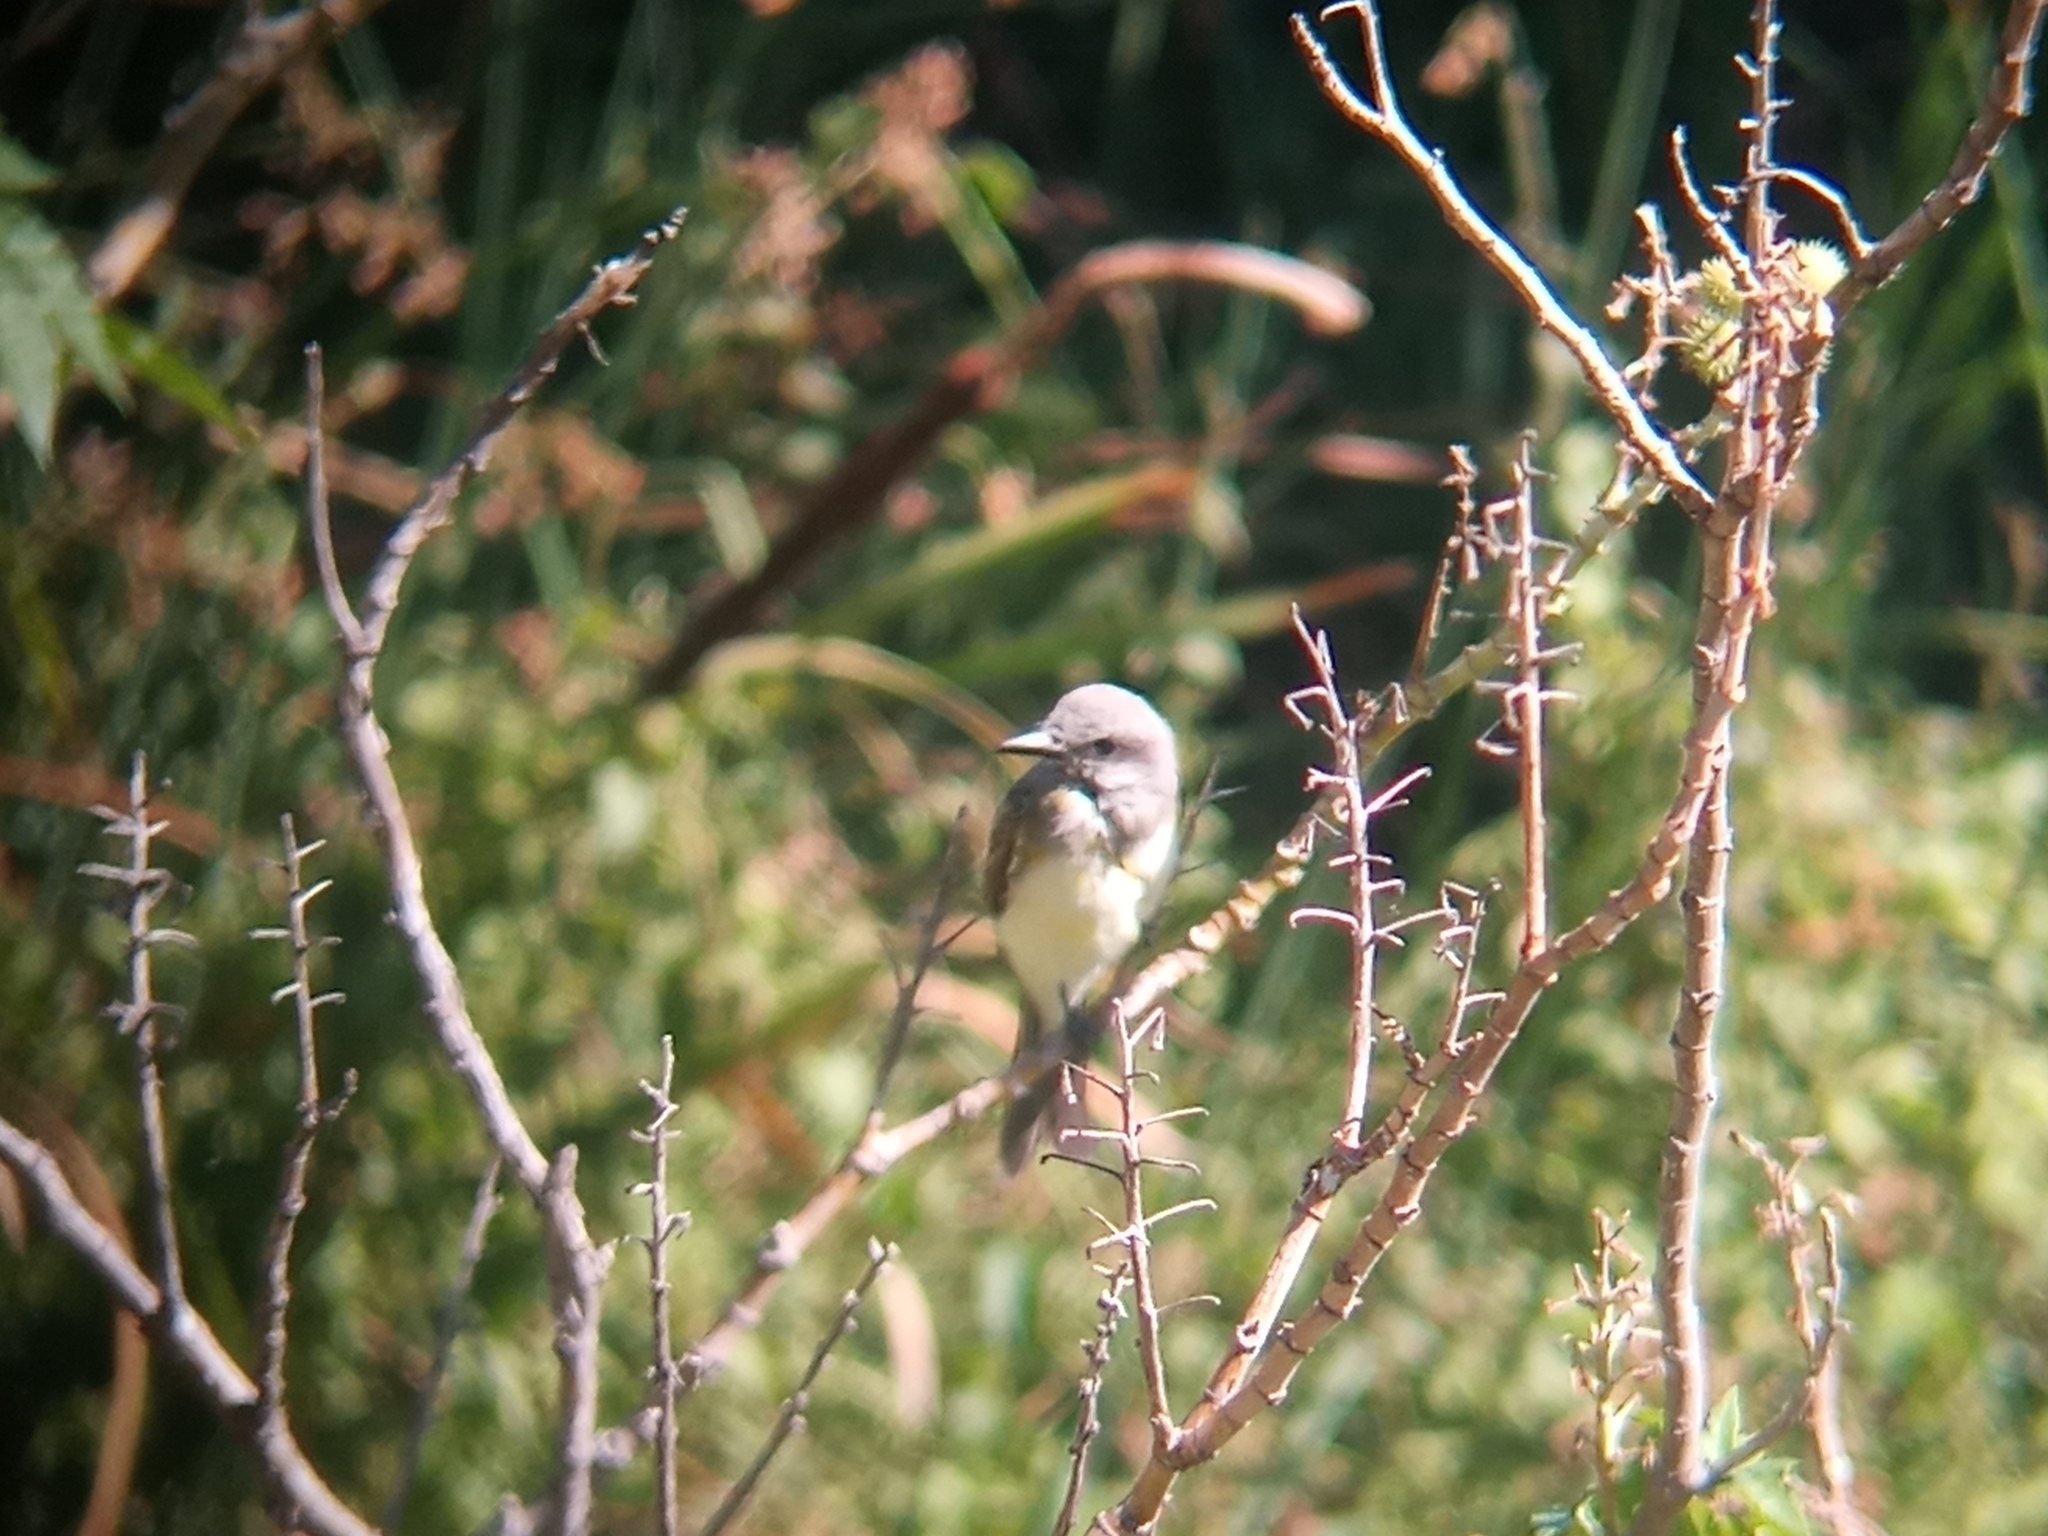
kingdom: Animalia
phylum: Chordata
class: Aves
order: Passeriformes
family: Tyrannidae
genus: Tyrannus
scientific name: Tyrannus melancholicus
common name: Tropical kingbird
